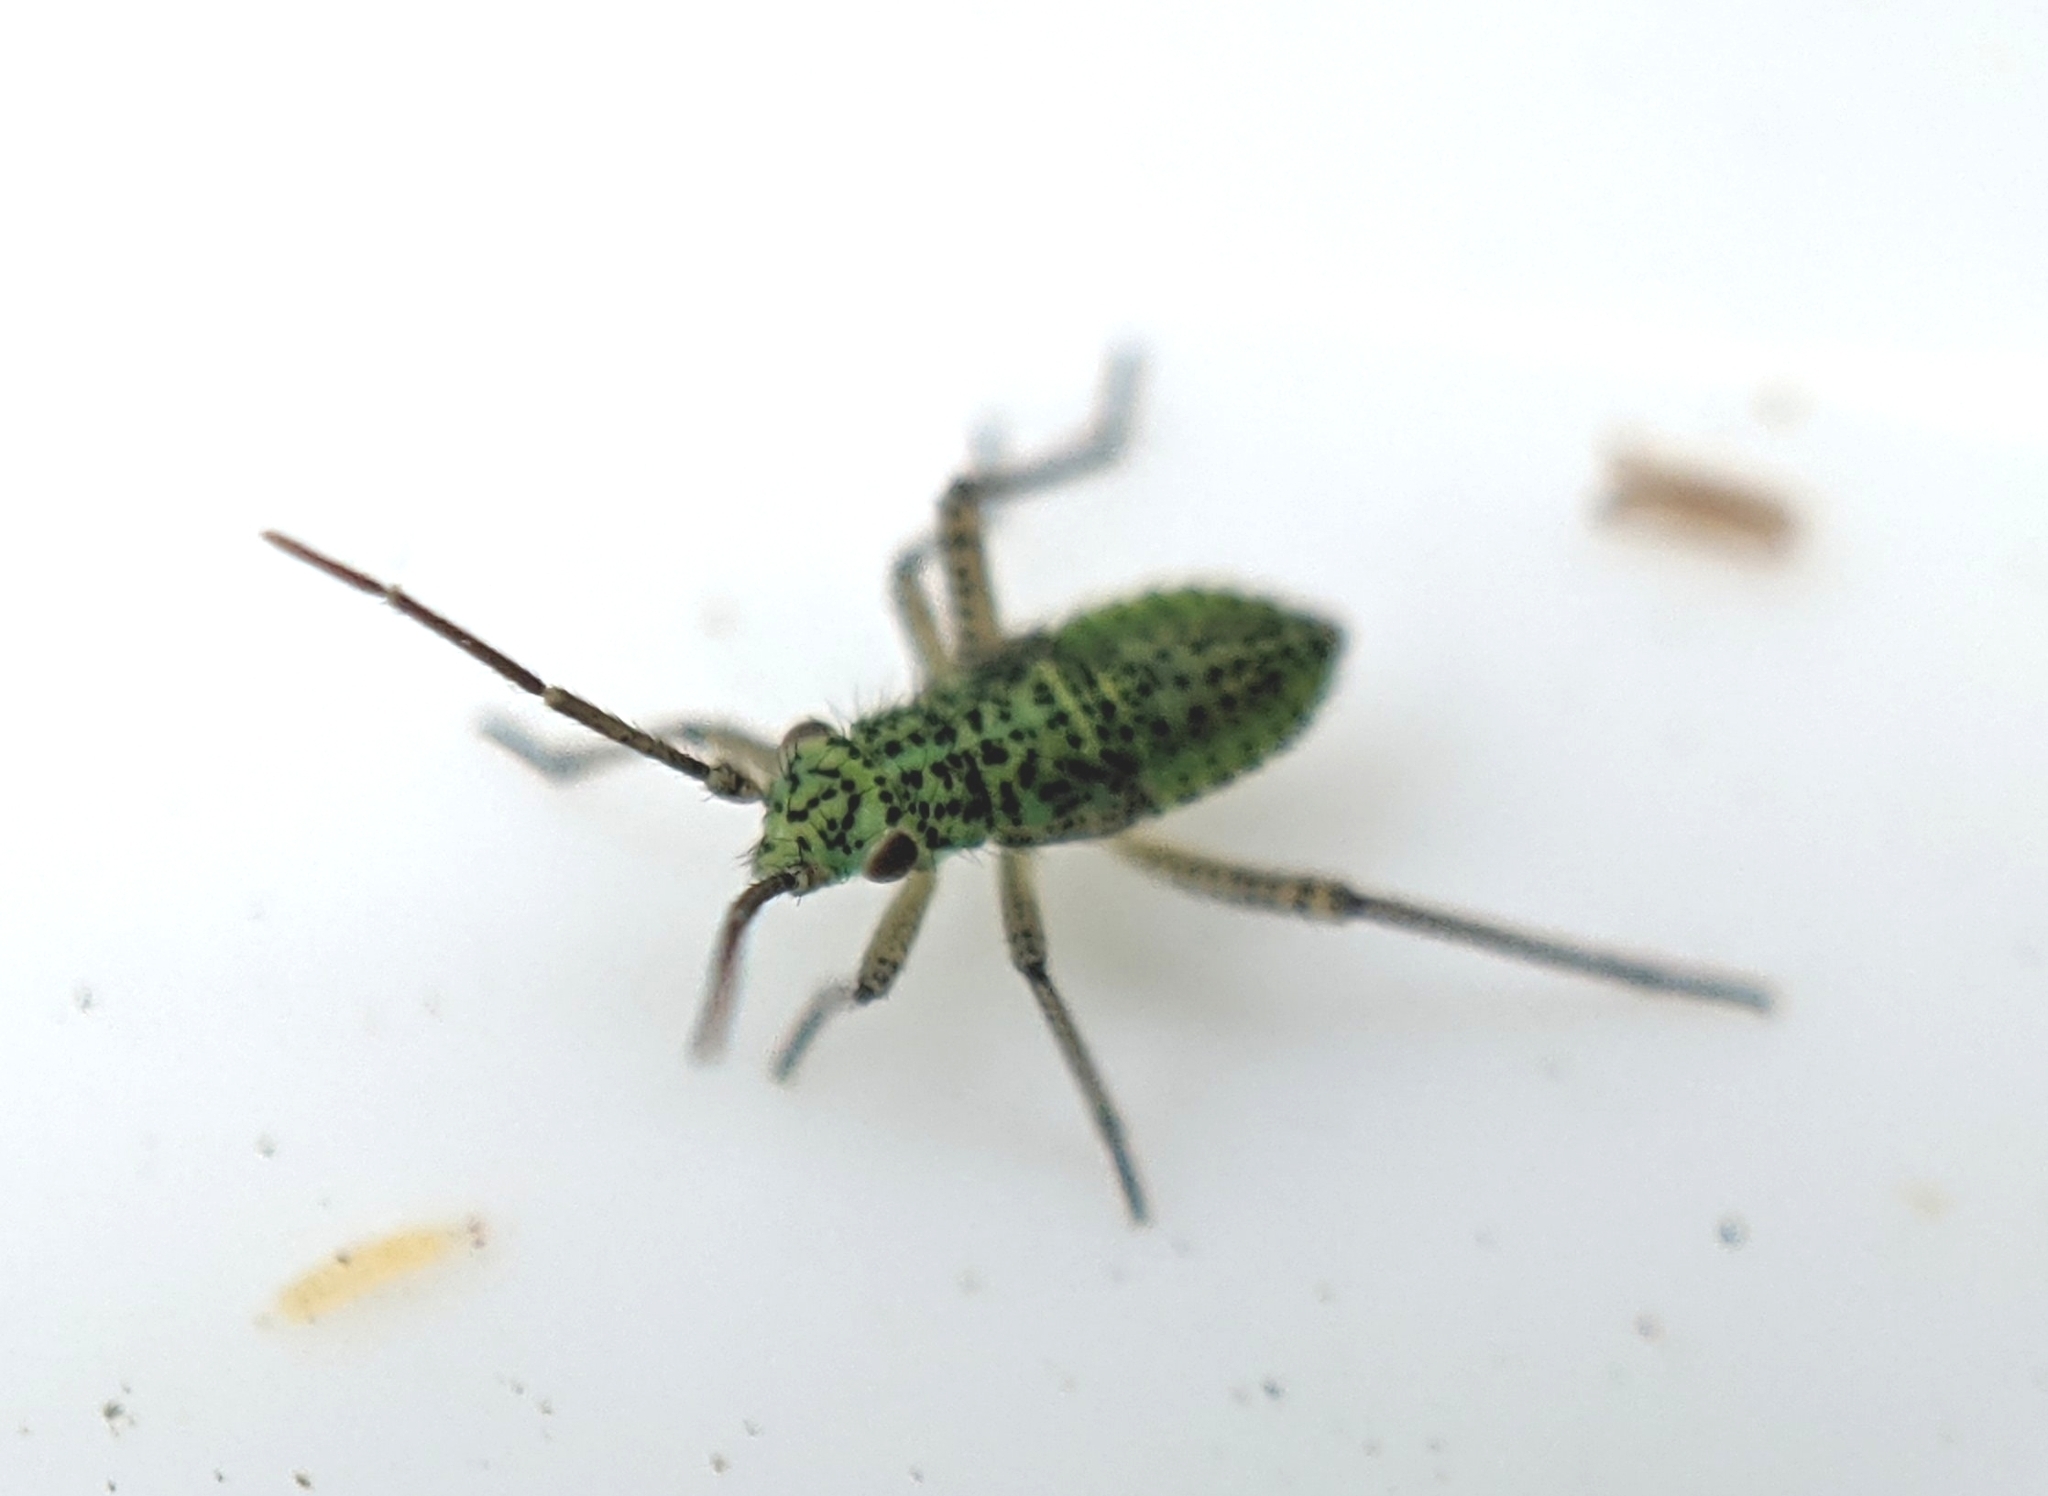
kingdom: Animalia
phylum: Arthropoda
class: Insecta
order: Hemiptera
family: Miridae
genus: Oncotylus
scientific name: Oncotylus viridiflavus
